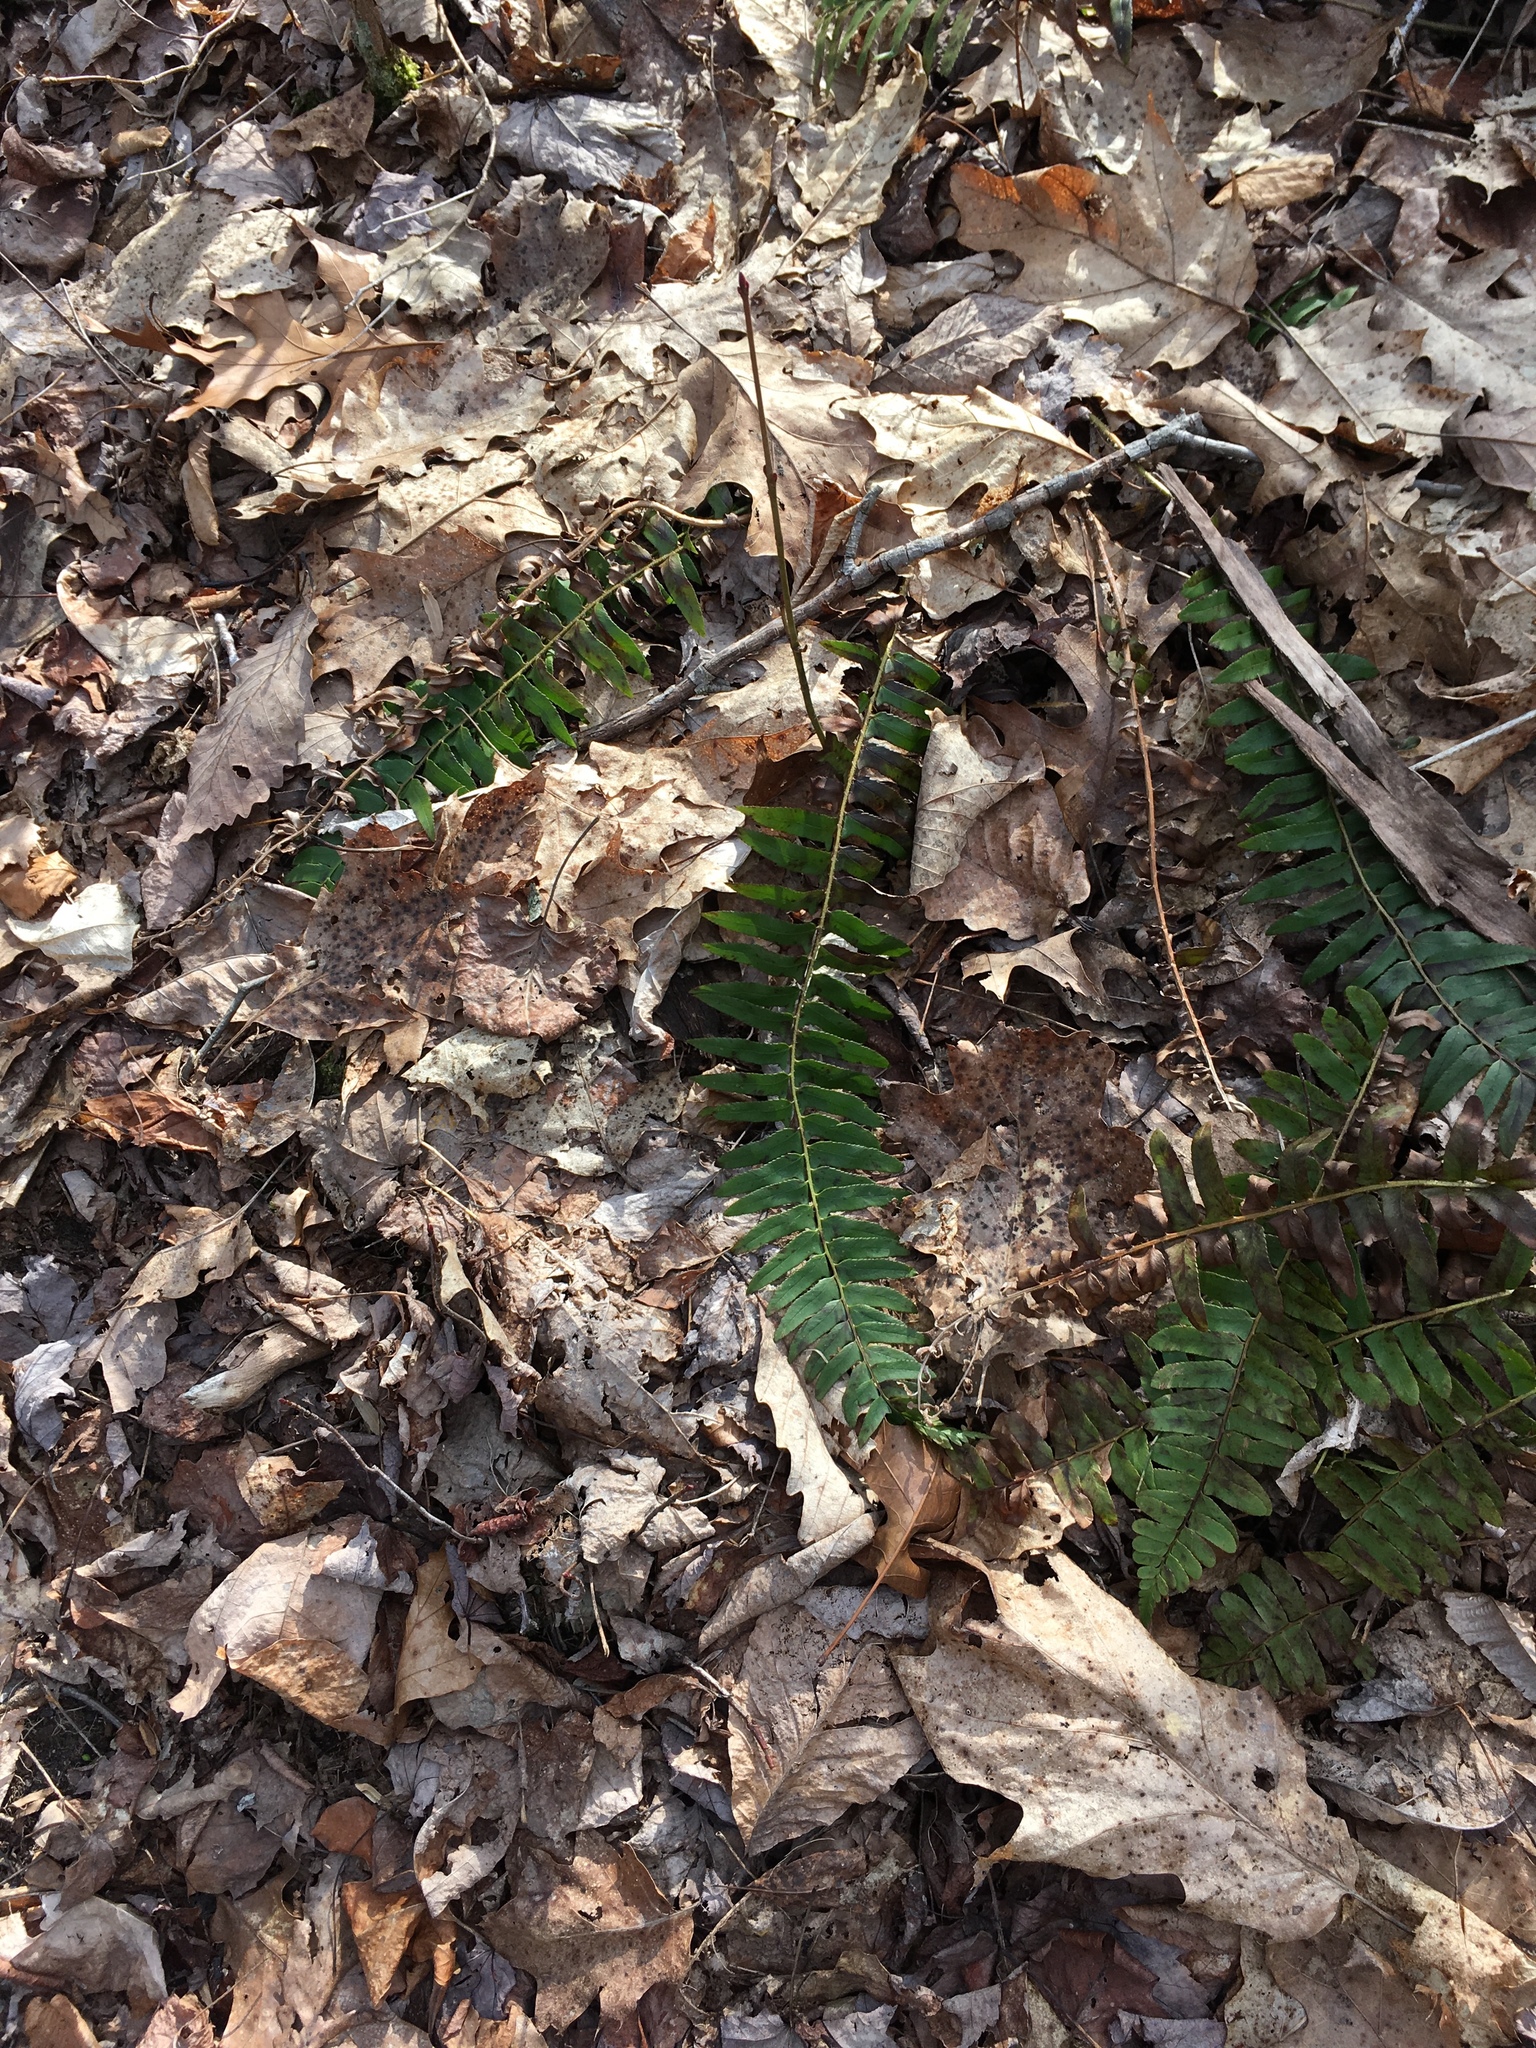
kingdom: Plantae
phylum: Tracheophyta
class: Polypodiopsida
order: Polypodiales
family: Dryopteridaceae
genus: Polystichum
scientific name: Polystichum acrostichoides
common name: Christmas fern
